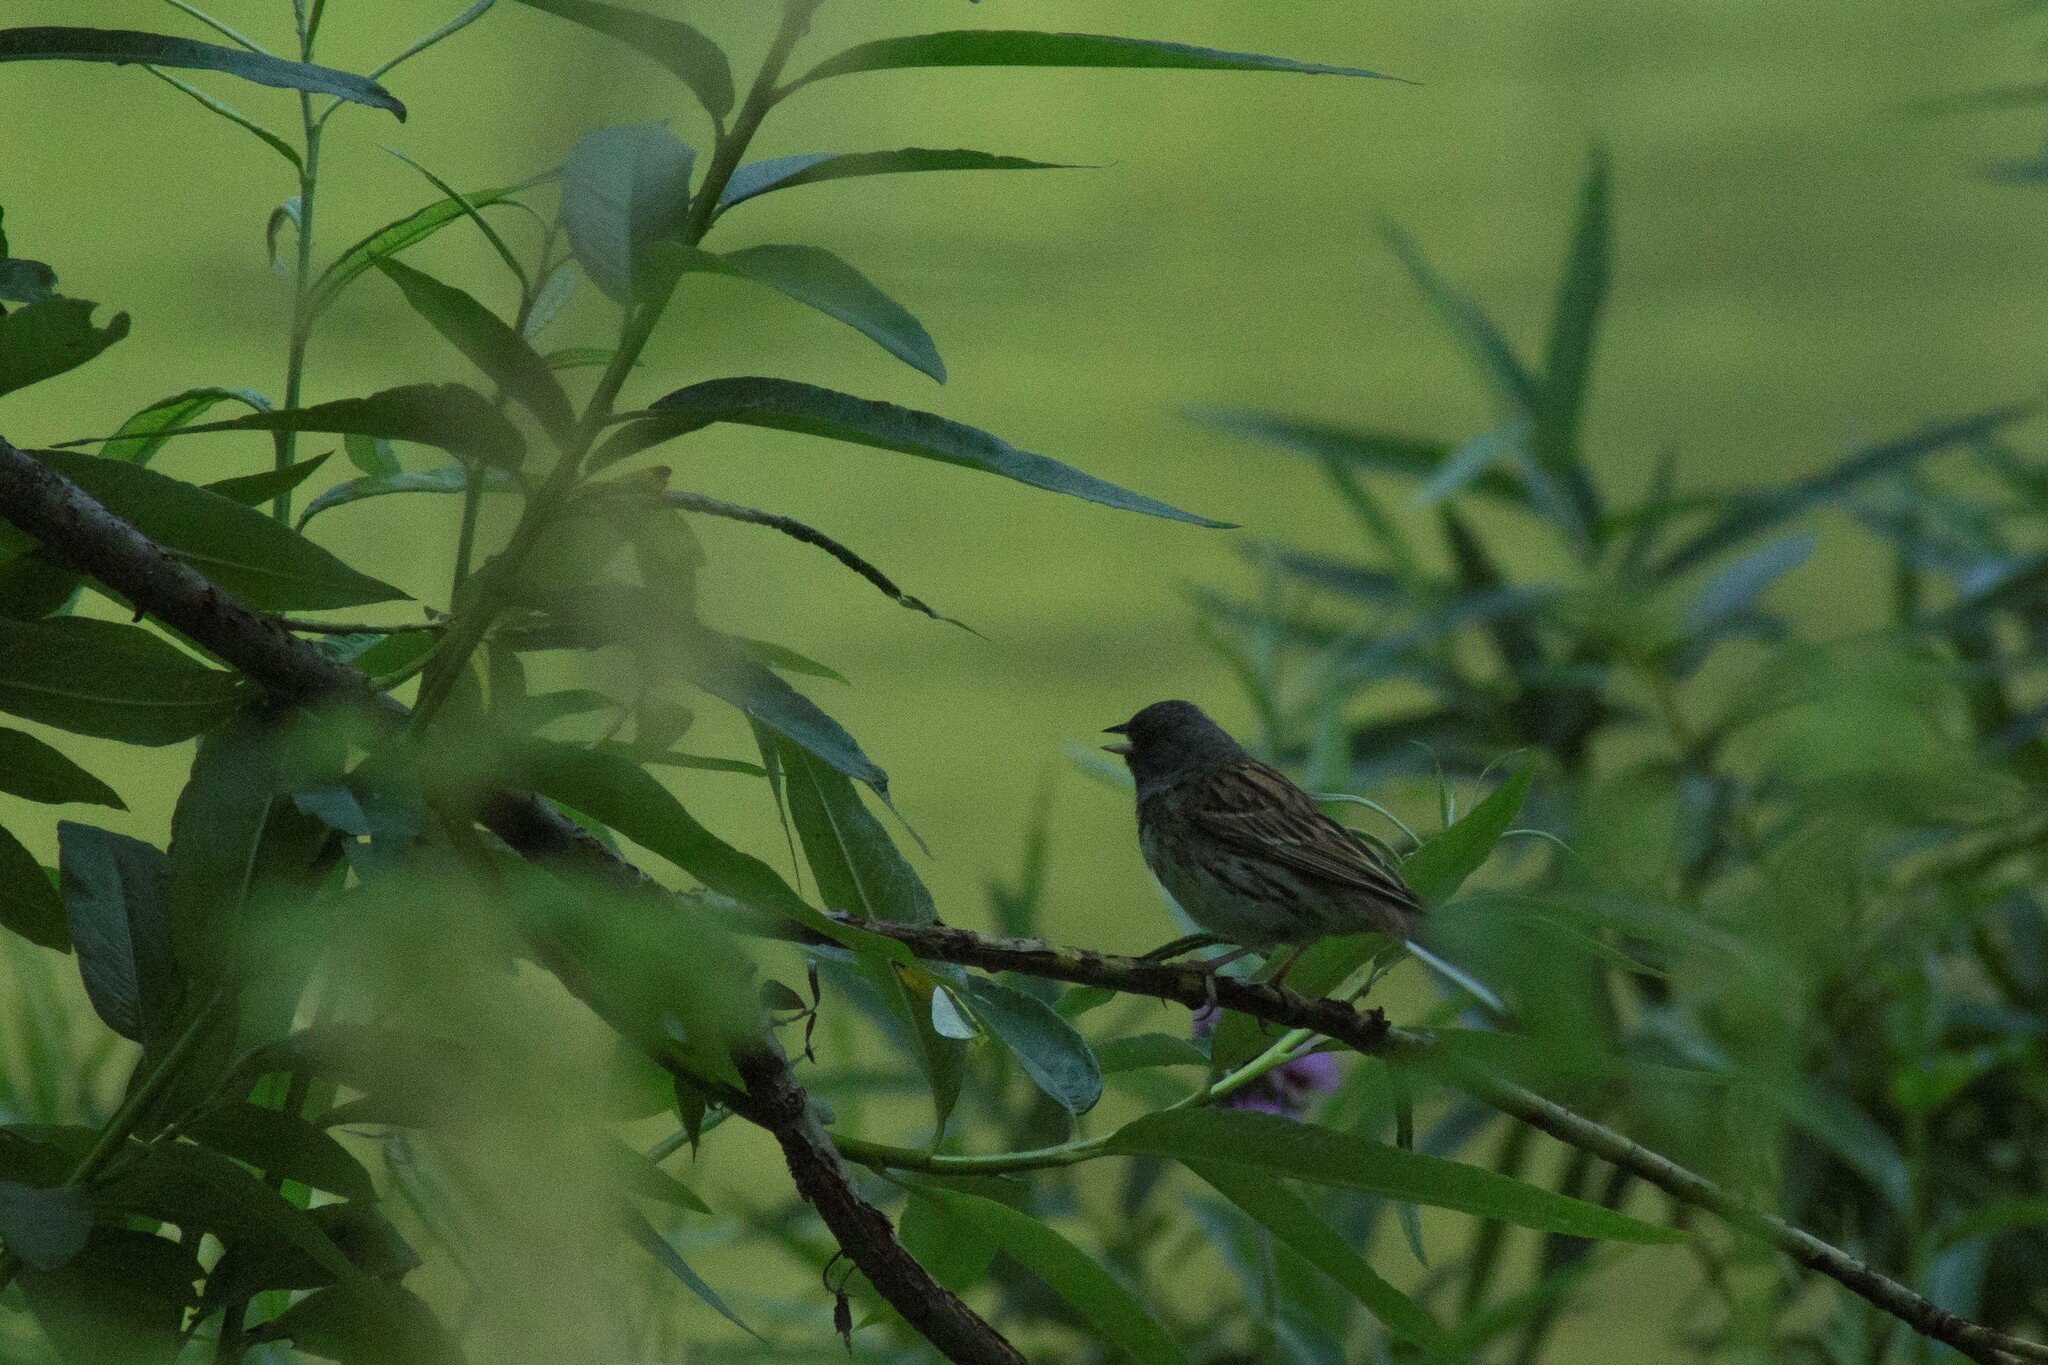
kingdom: Animalia
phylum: Chordata
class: Aves
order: Passeriformes
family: Emberizidae
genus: Emberiza
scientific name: Emberiza spodocephala
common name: Black-faced bunting
